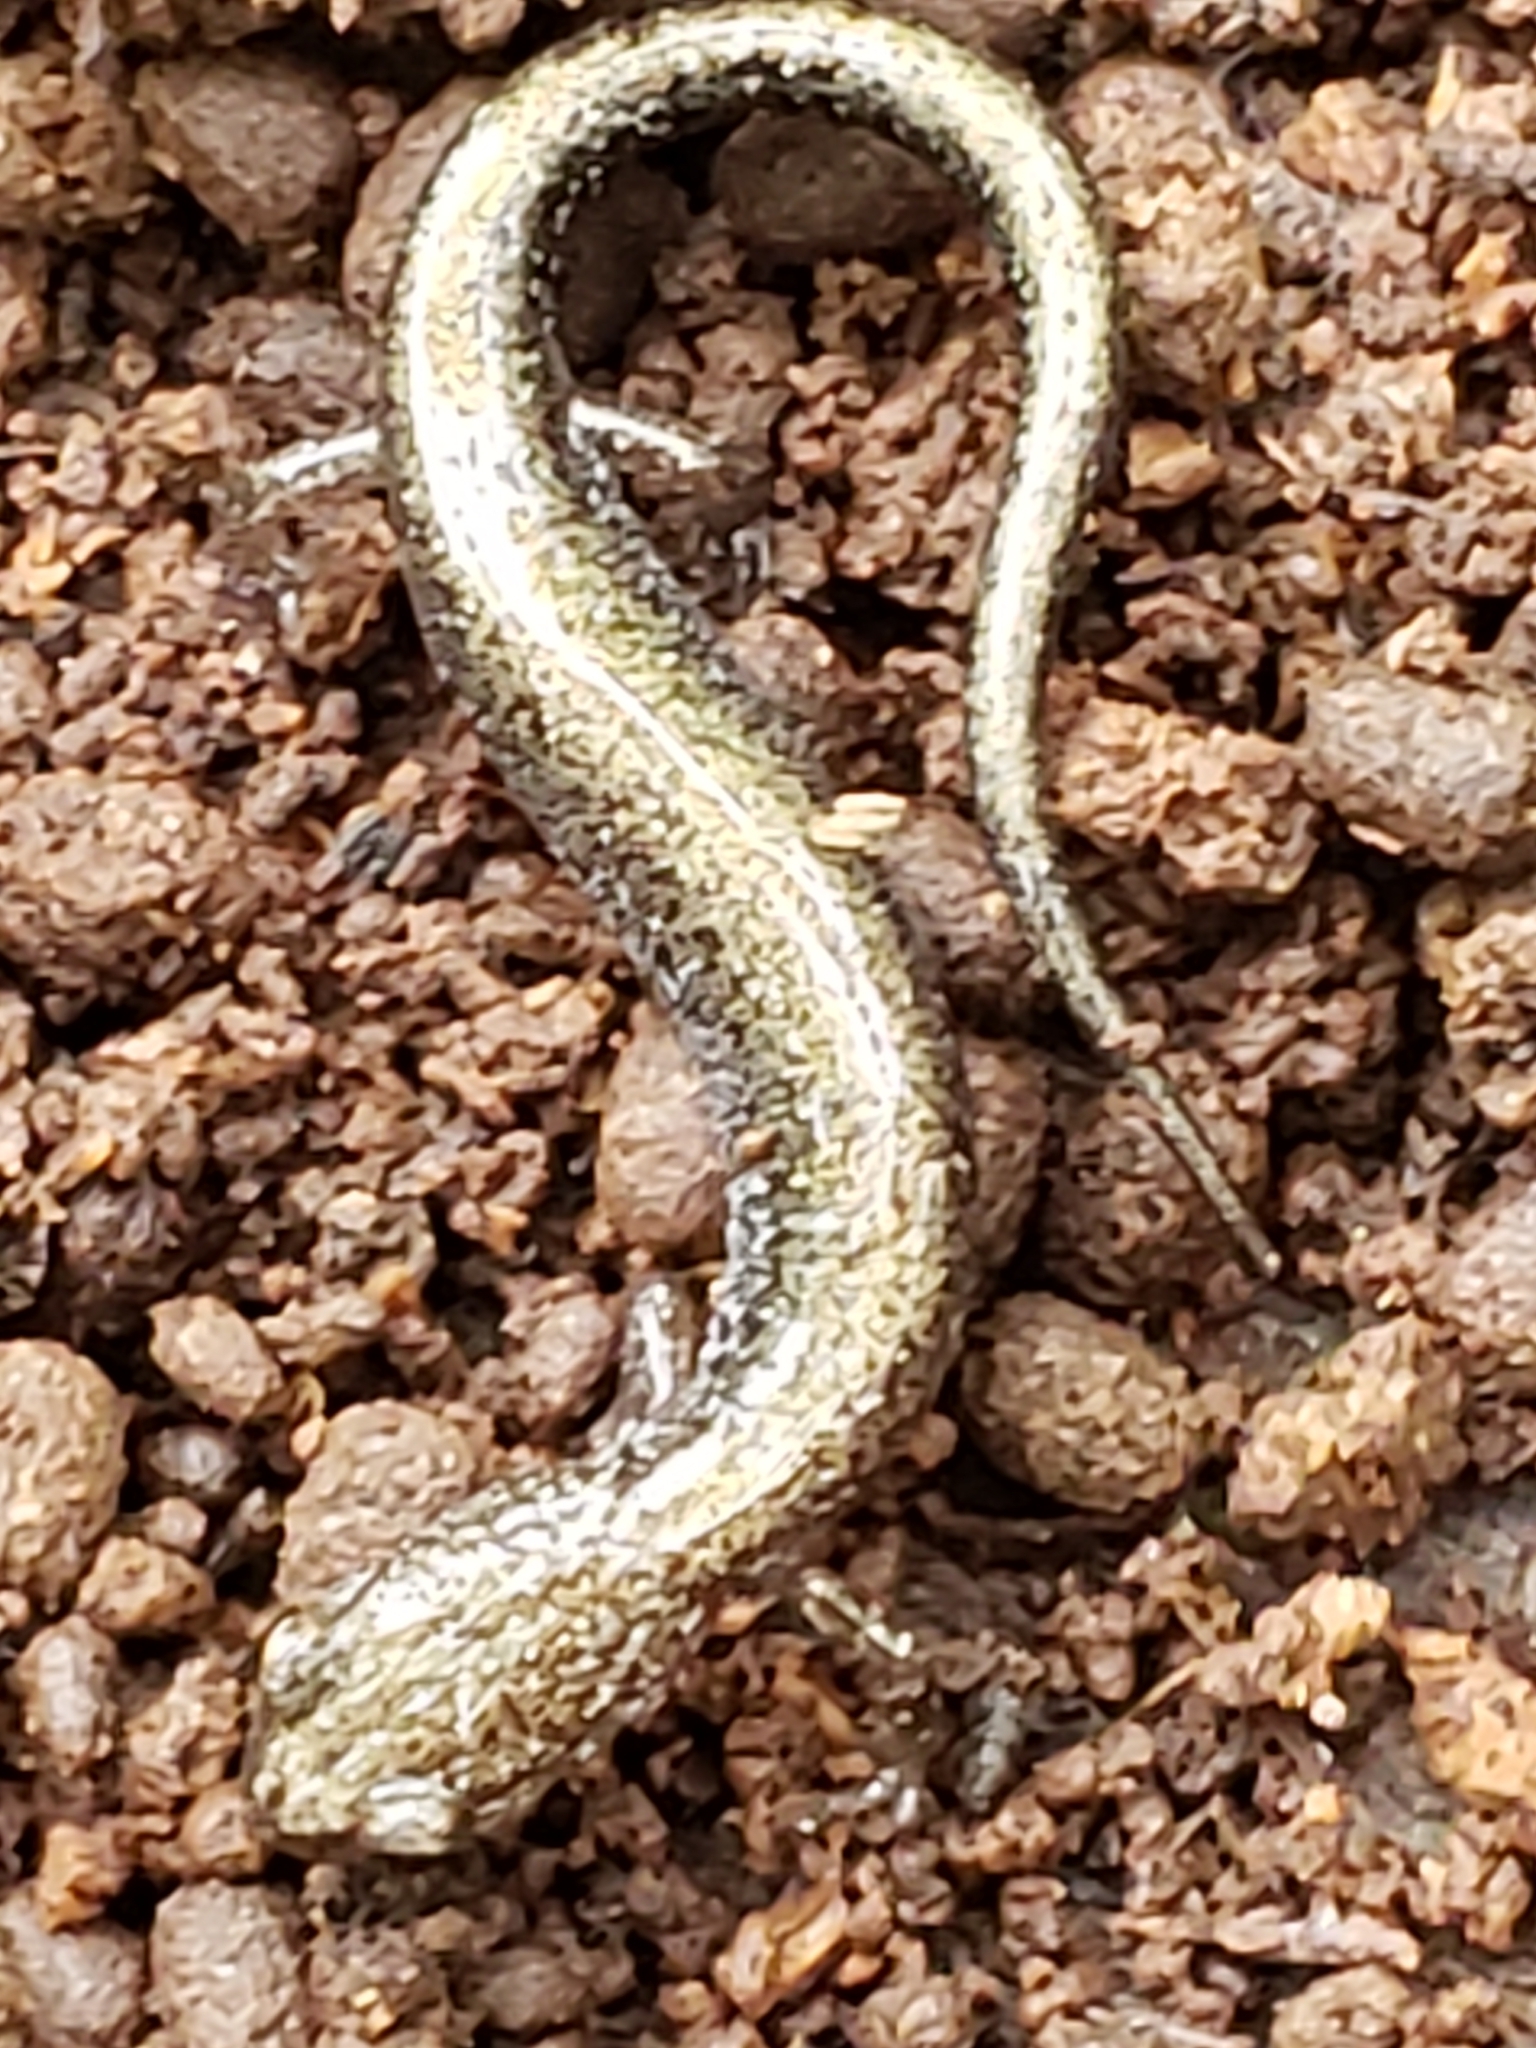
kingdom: Animalia
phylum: Chordata
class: Amphibia
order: Caudata
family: Plethodontidae
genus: Plethodon
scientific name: Plethodon cinereus
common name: Redback salamander
